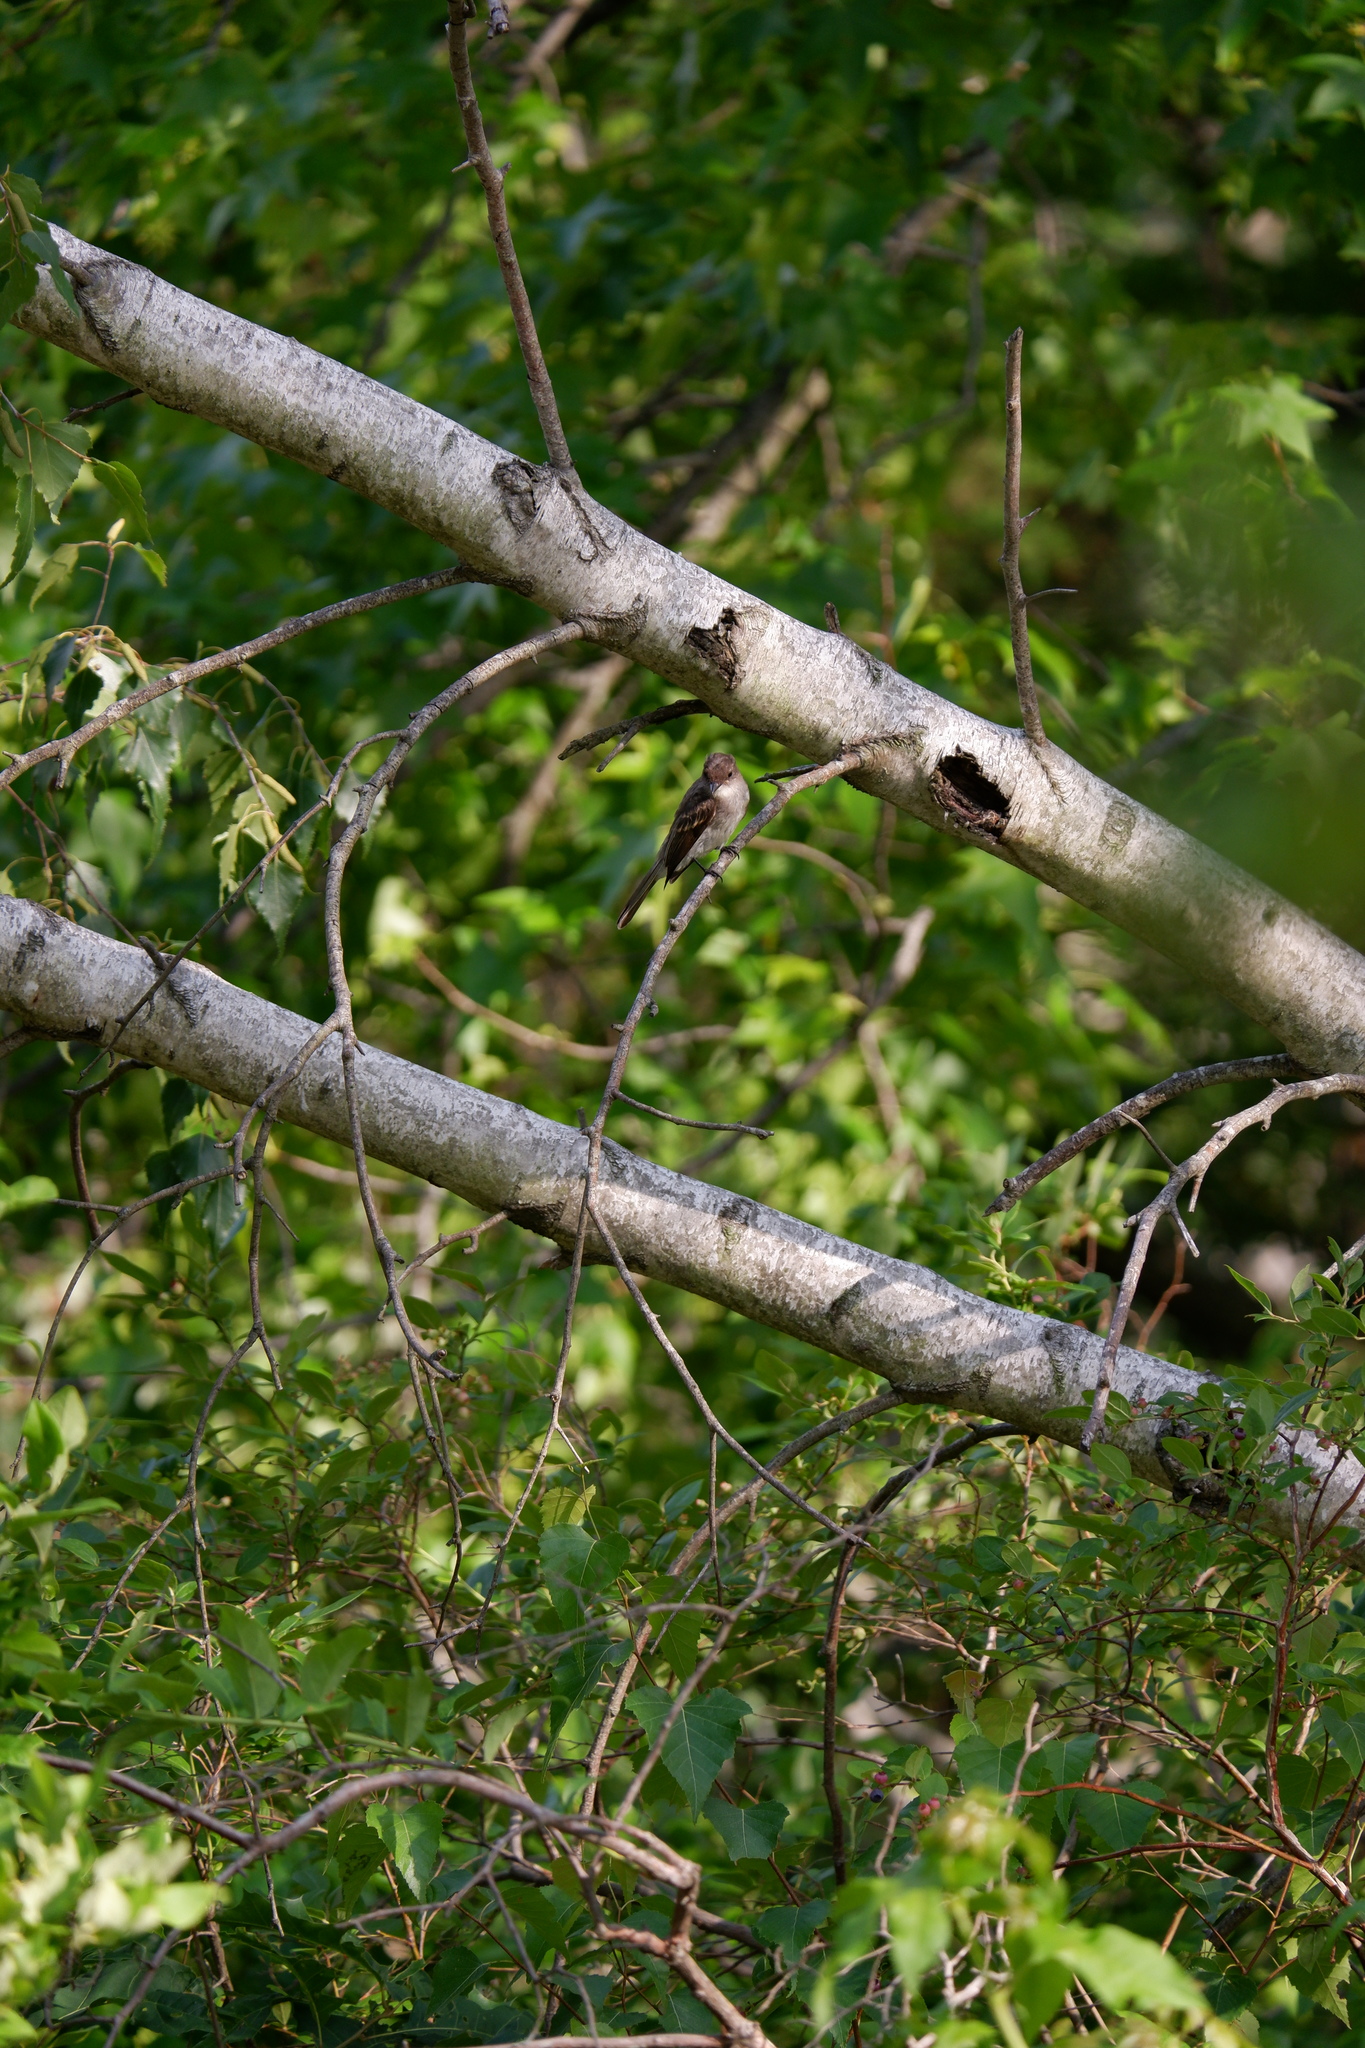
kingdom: Animalia
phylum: Chordata
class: Aves
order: Passeriformes
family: Tyrannidae
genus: Sayornis
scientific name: Sayornis phoebe
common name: Eastern phoebe
